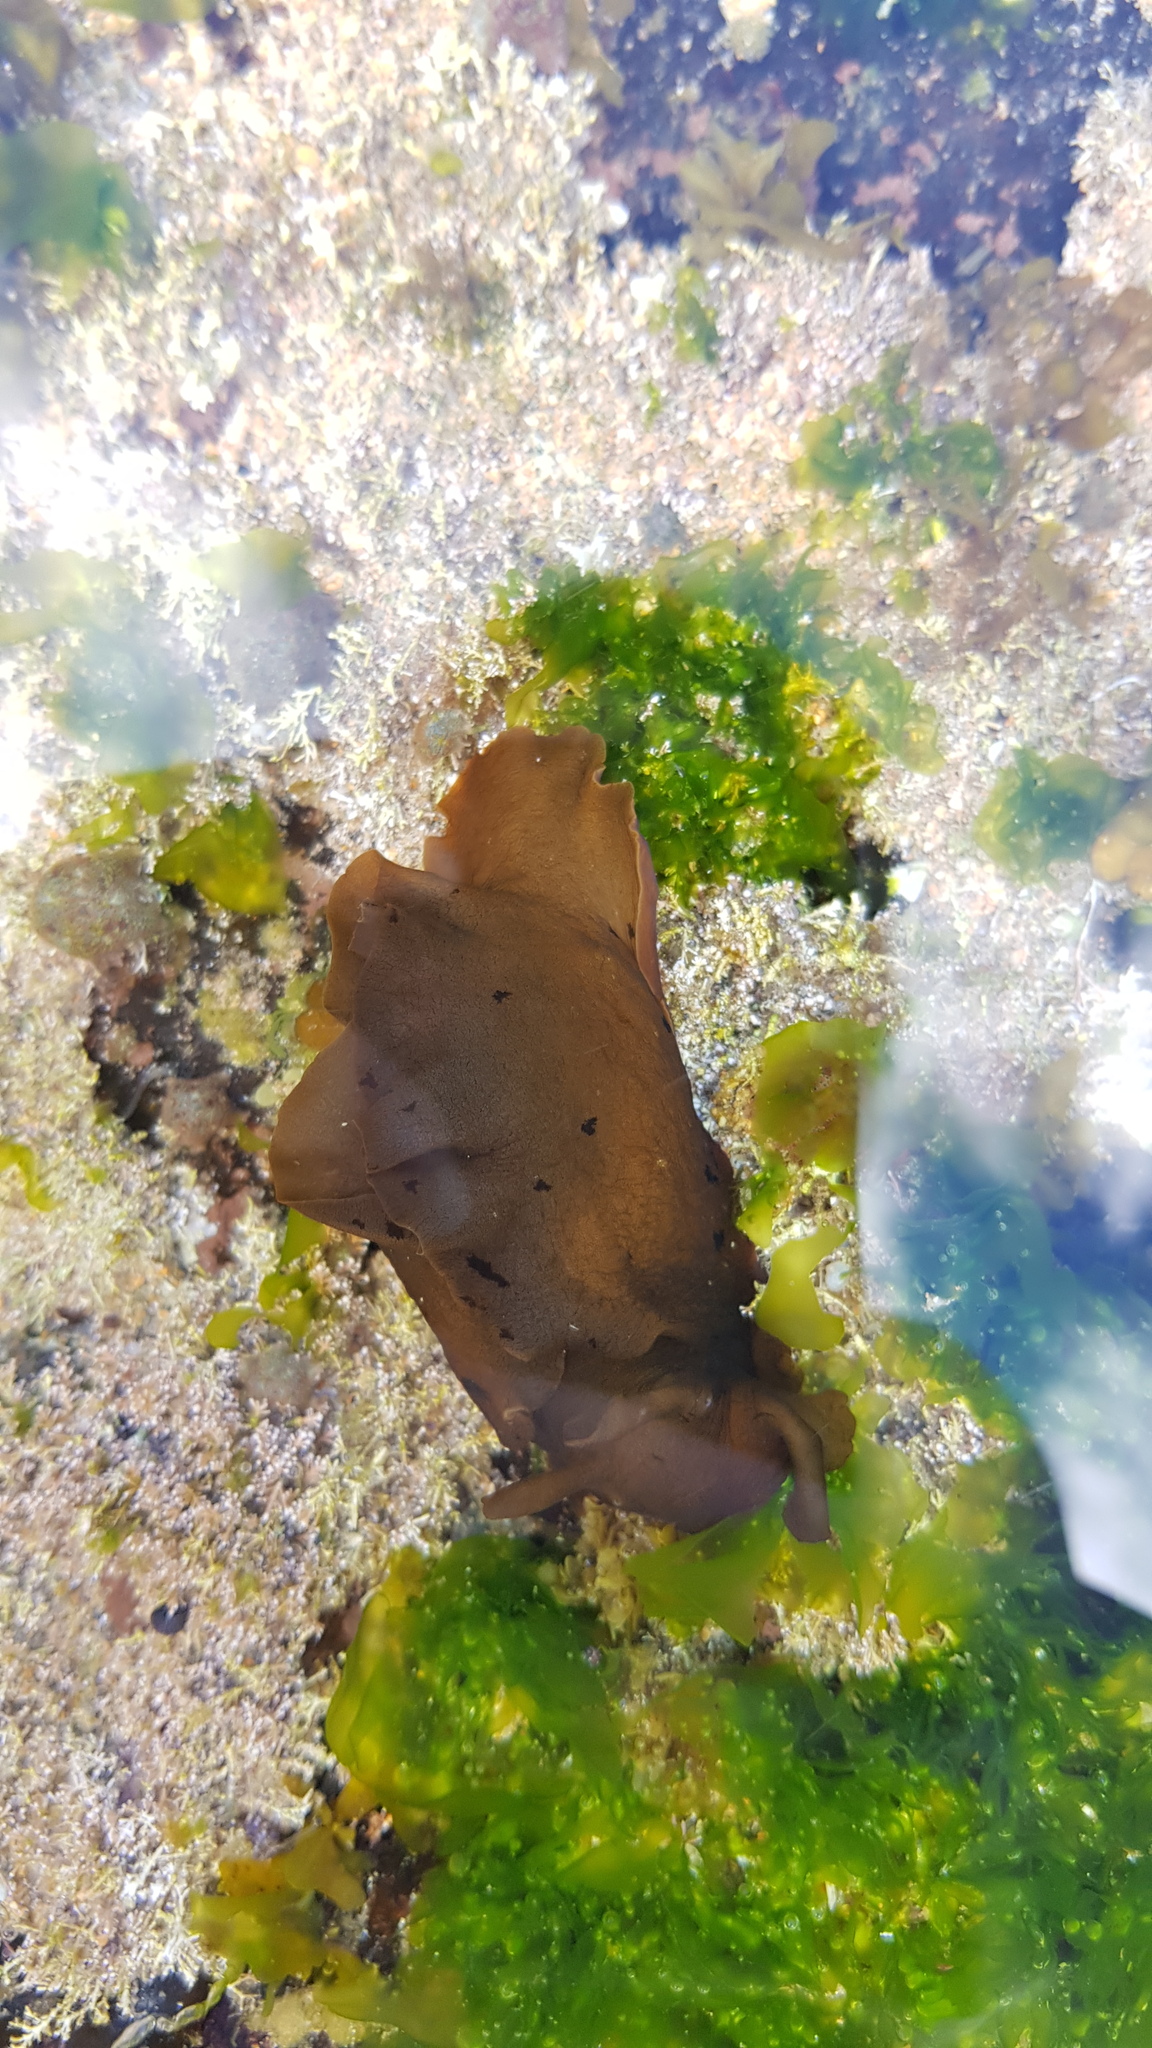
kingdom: Animalia
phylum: Mollusca
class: Gastropoda
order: Aplysiida
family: Aplysiidae
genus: Aplysia
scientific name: Aplysia juliana
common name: Walking sea hare
